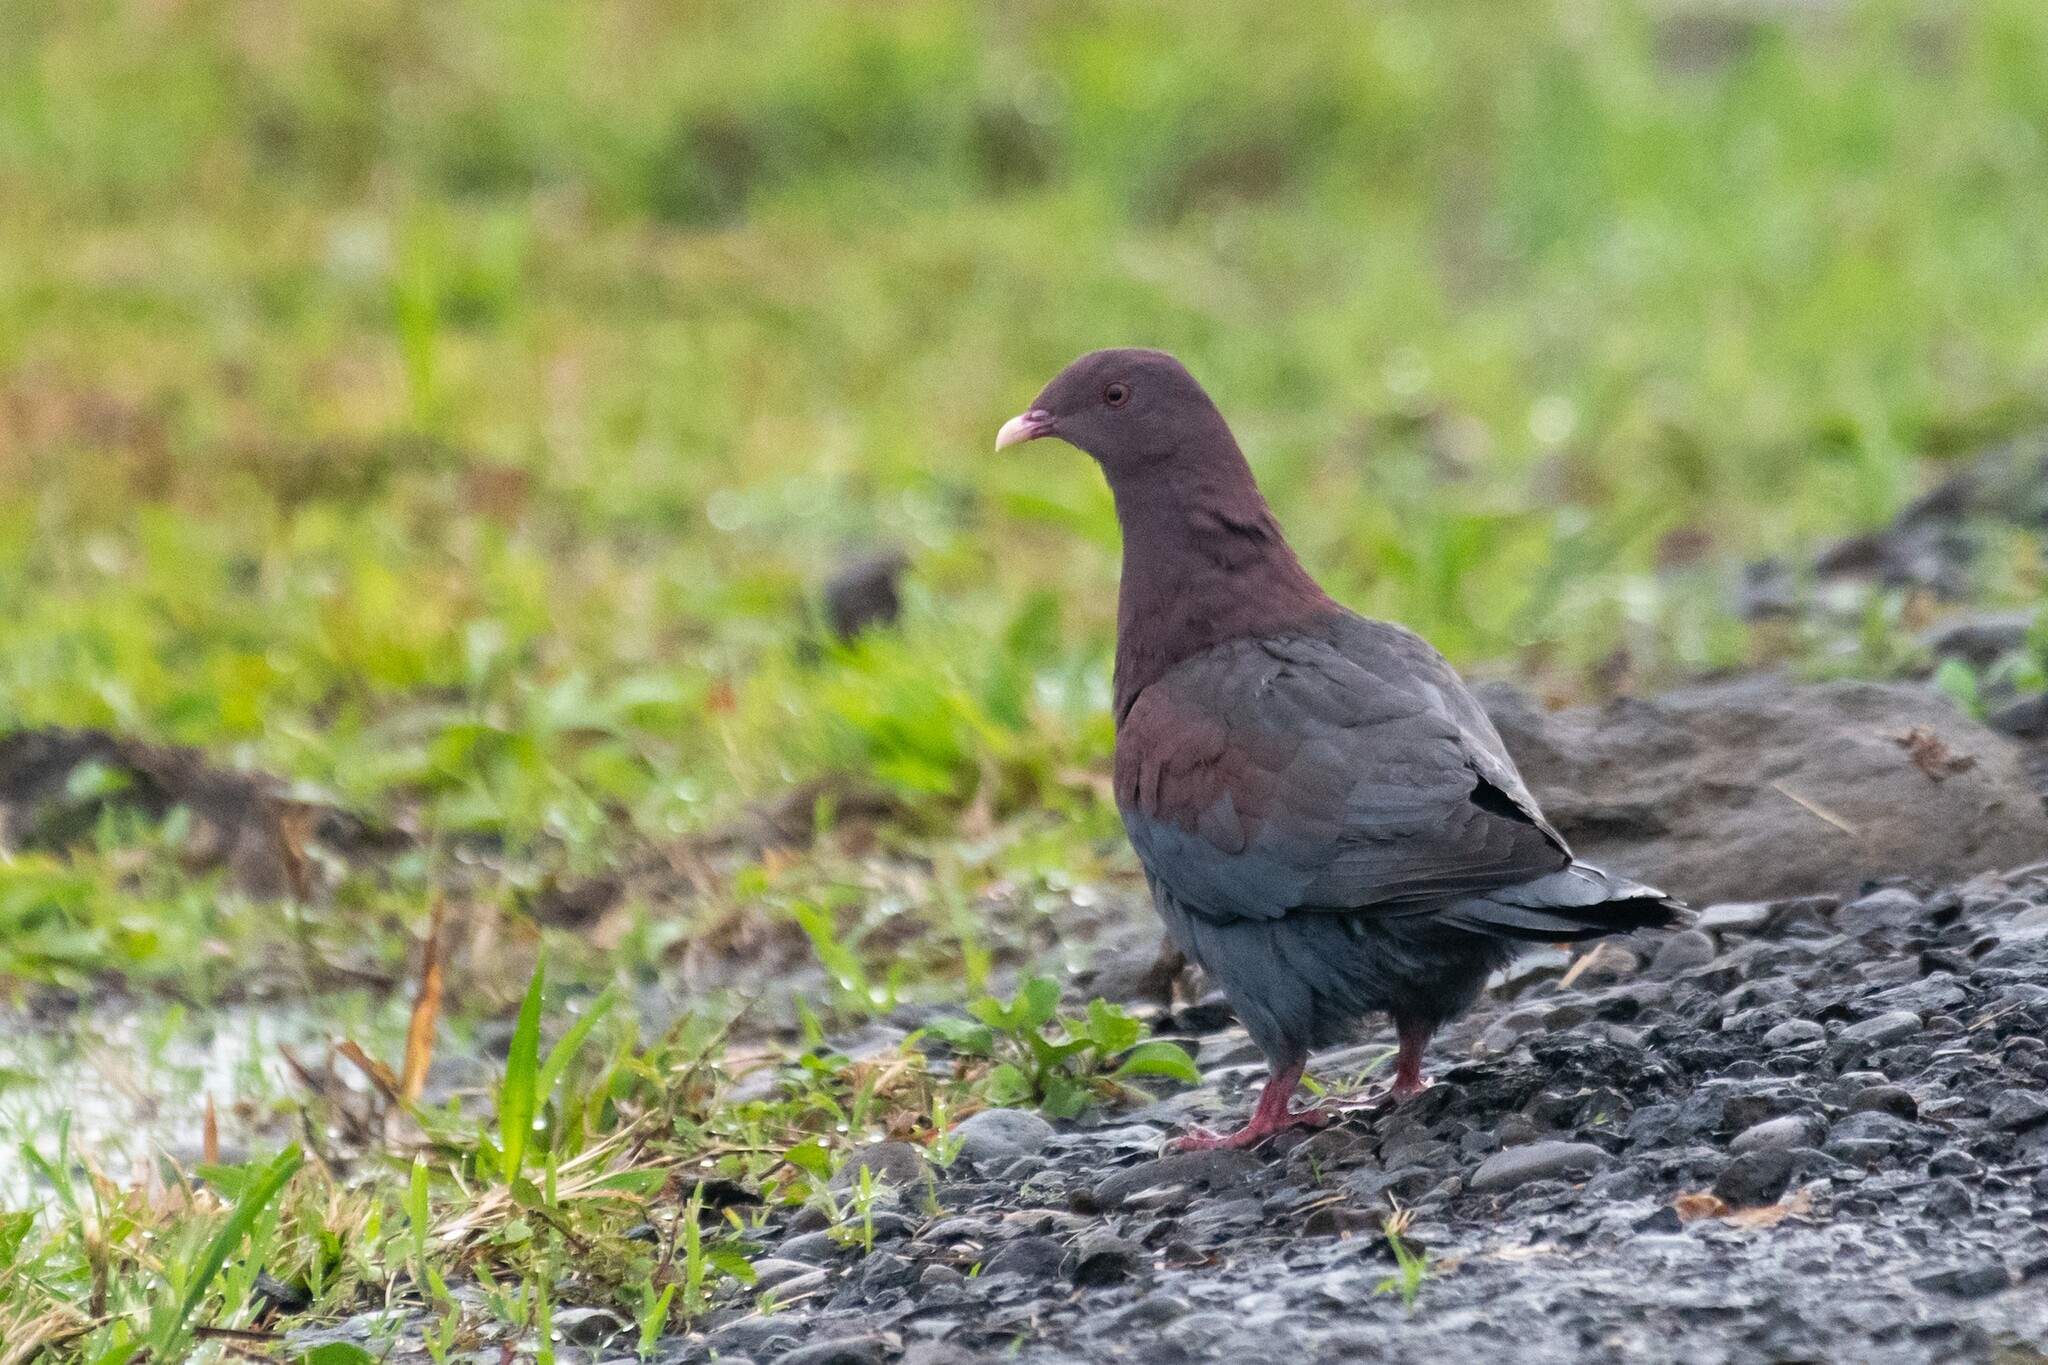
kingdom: Animalia
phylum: Chordata
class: Aves
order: Columbiformes
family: Columbidae
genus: Patagioenas
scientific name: Patagioenas flavirostris
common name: Red-billed pigeon
